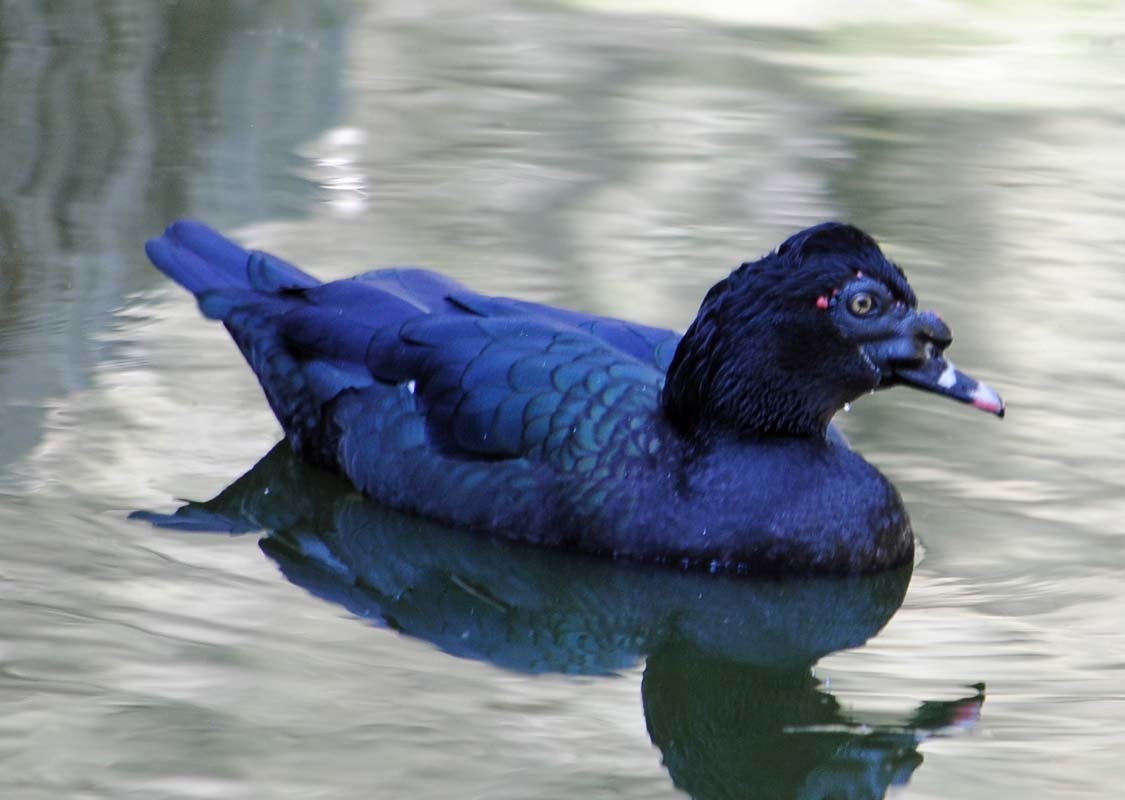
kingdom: Animalia
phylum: Chordata
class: Aves
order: Anseriformes
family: Anatidae
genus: Cairina
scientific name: Cairina moschata
